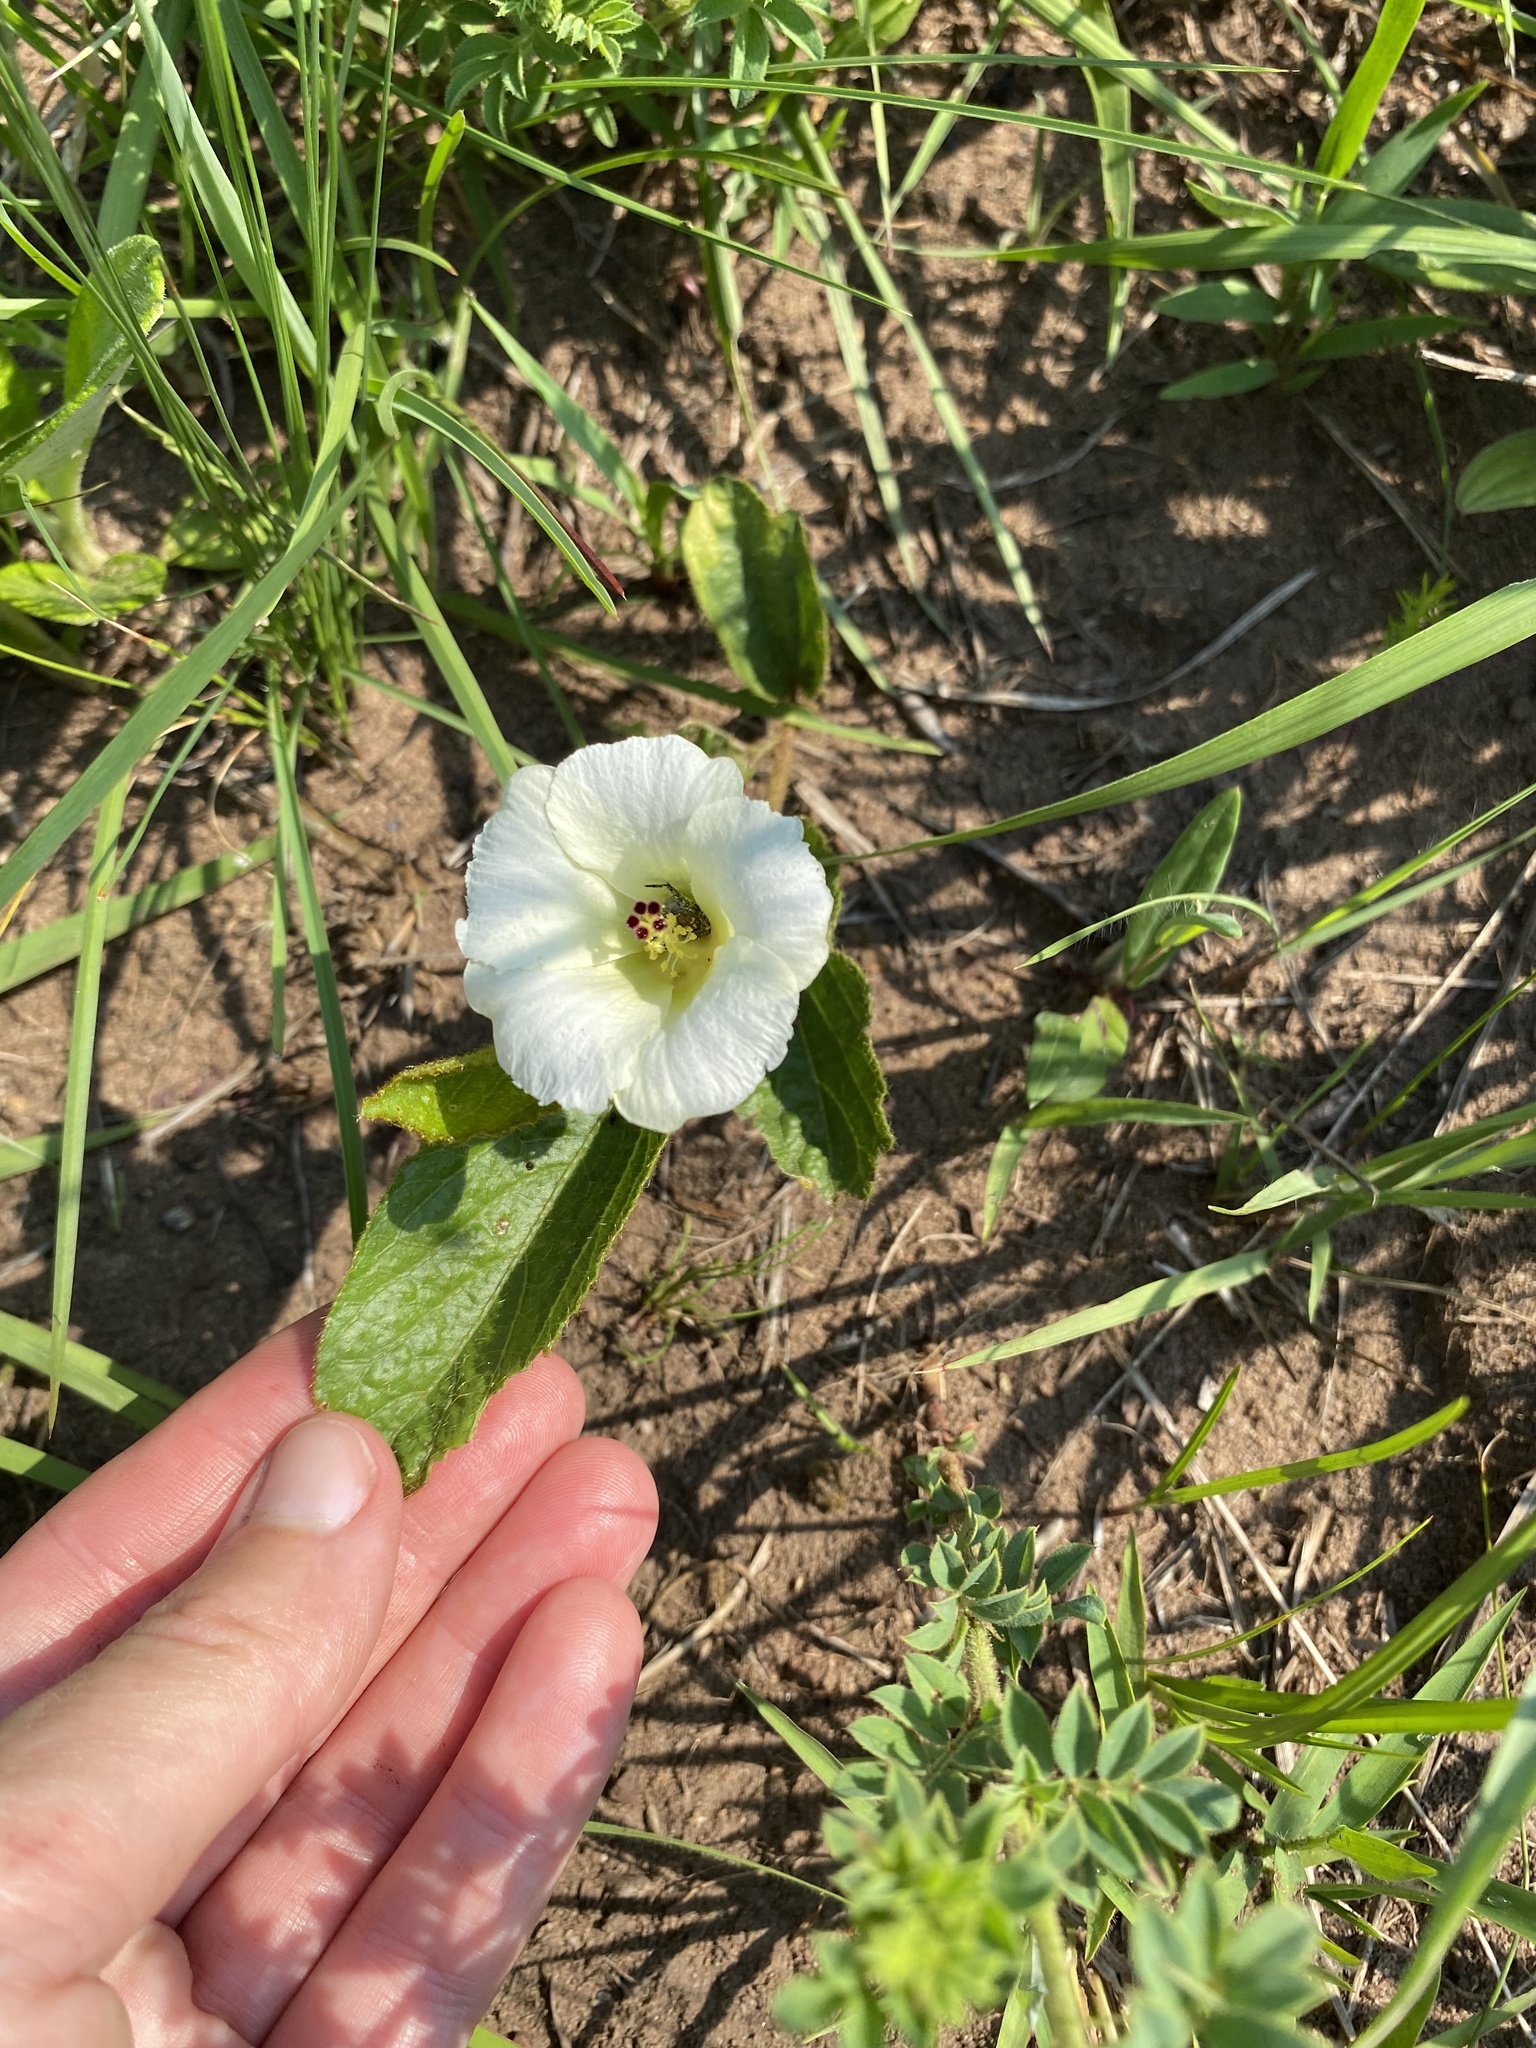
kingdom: Plantae
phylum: Tracheophyta
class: Magnoliopsida
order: Malvales
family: Malvaceae
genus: Hibiscus
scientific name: Hibiscus aethiopicus
